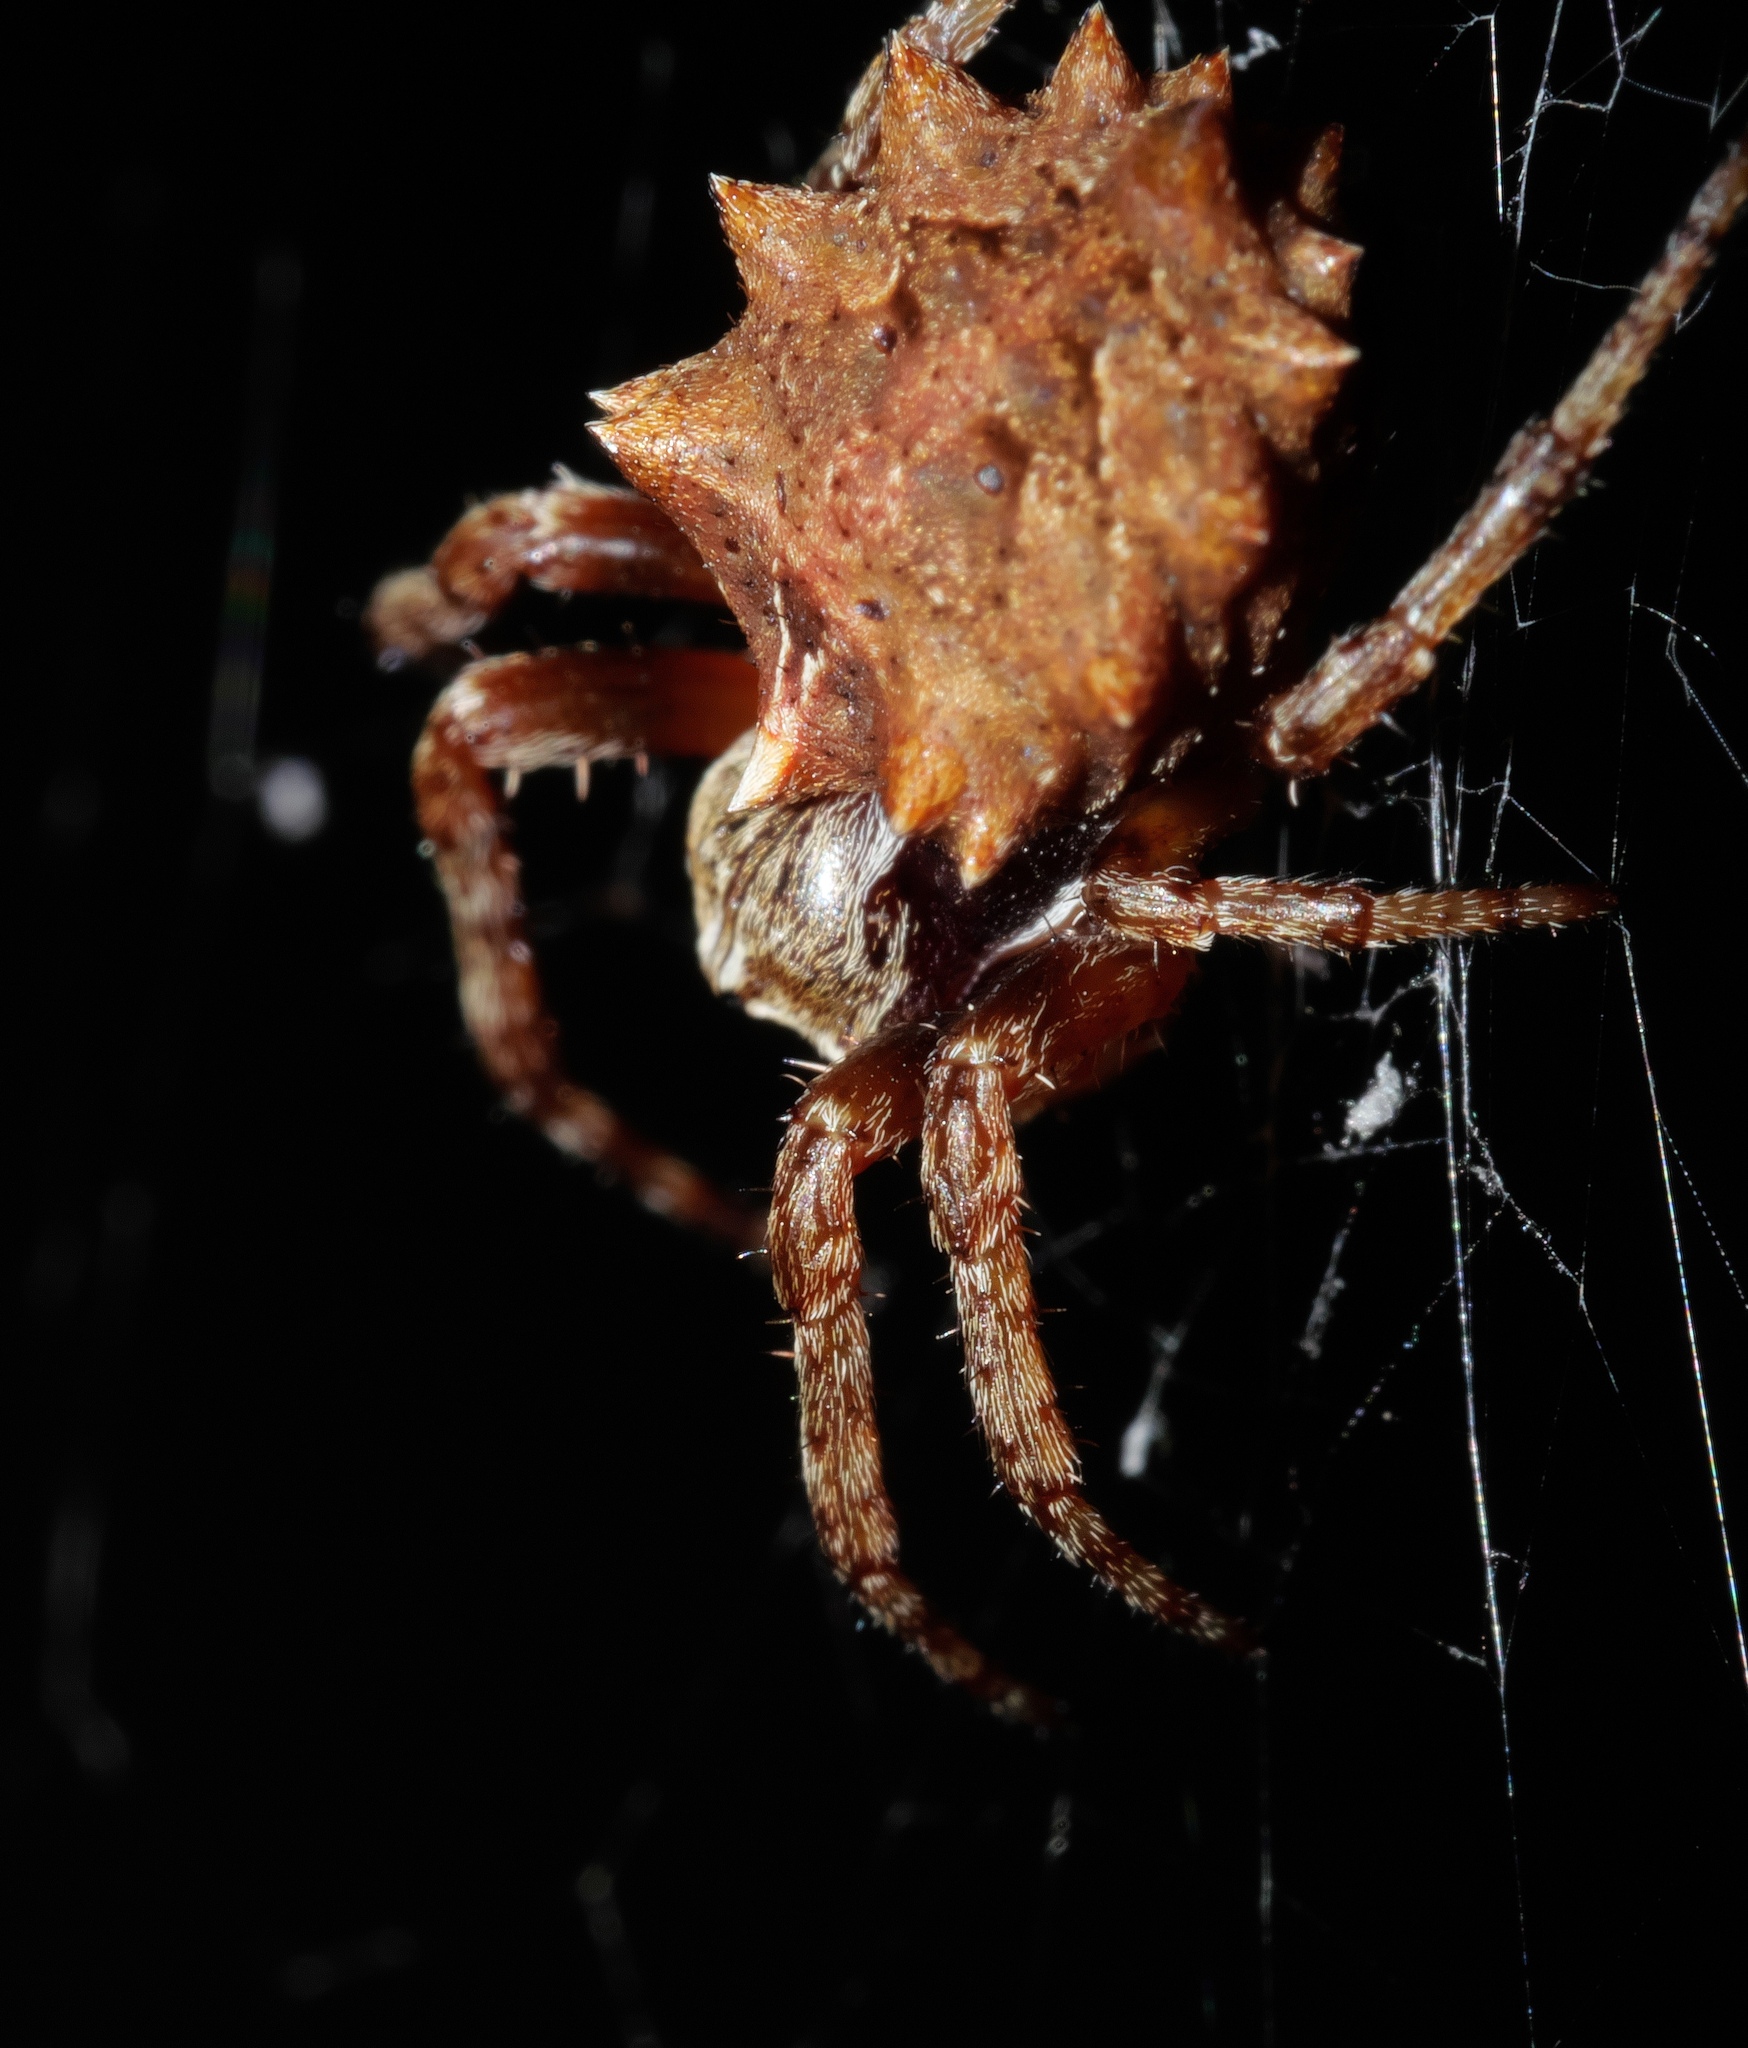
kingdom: Animalia
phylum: Arthropoda
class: Arachnida
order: Araneae
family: Araneidae
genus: Acanthepeira
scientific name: Acanthepeira stellata
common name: Starbellied orbweaver
